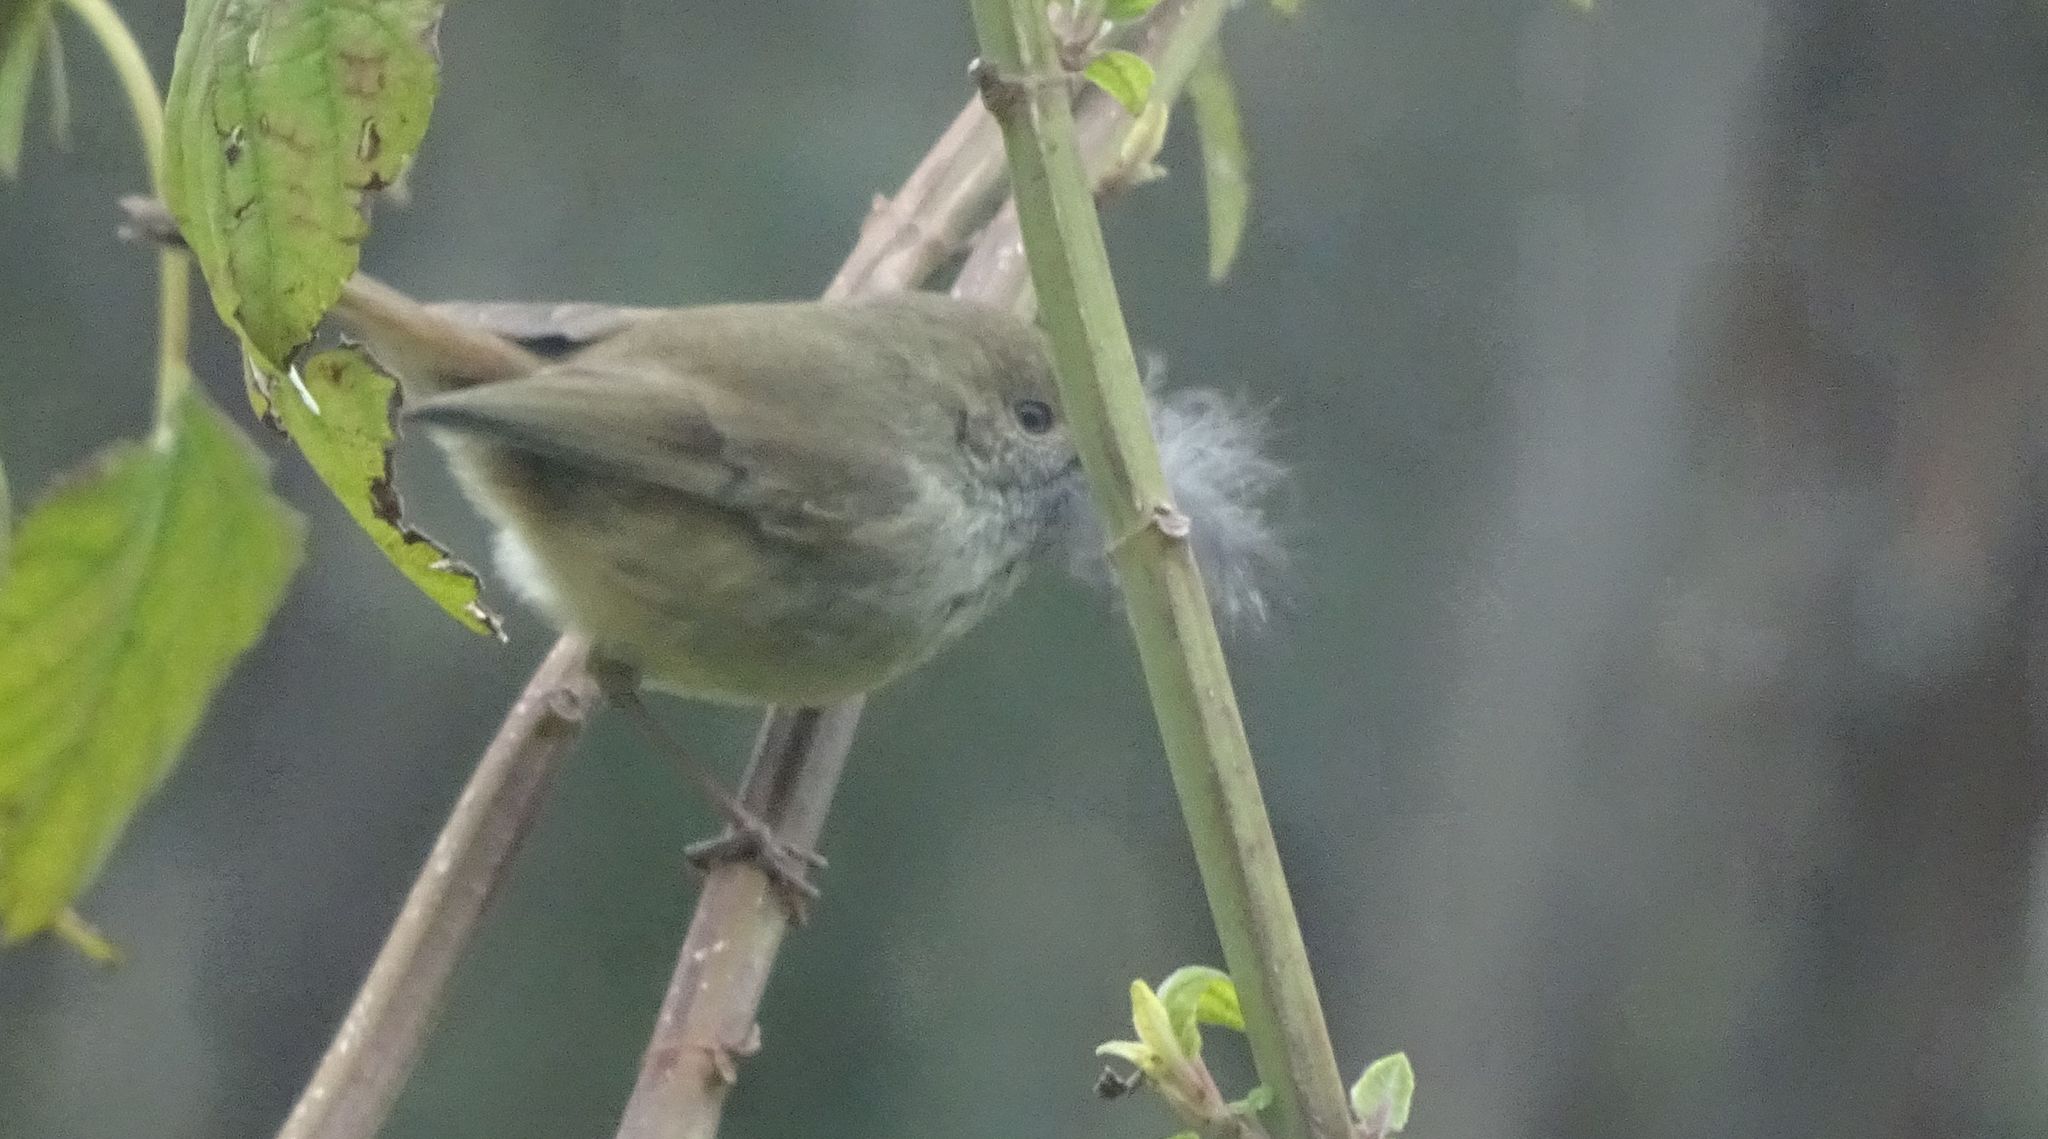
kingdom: Animalia
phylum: Chordata
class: Aves
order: Passeriformes
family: Acanthizidae
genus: Acanthiza
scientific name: Acanthiza pusilla
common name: Brown thornbill
